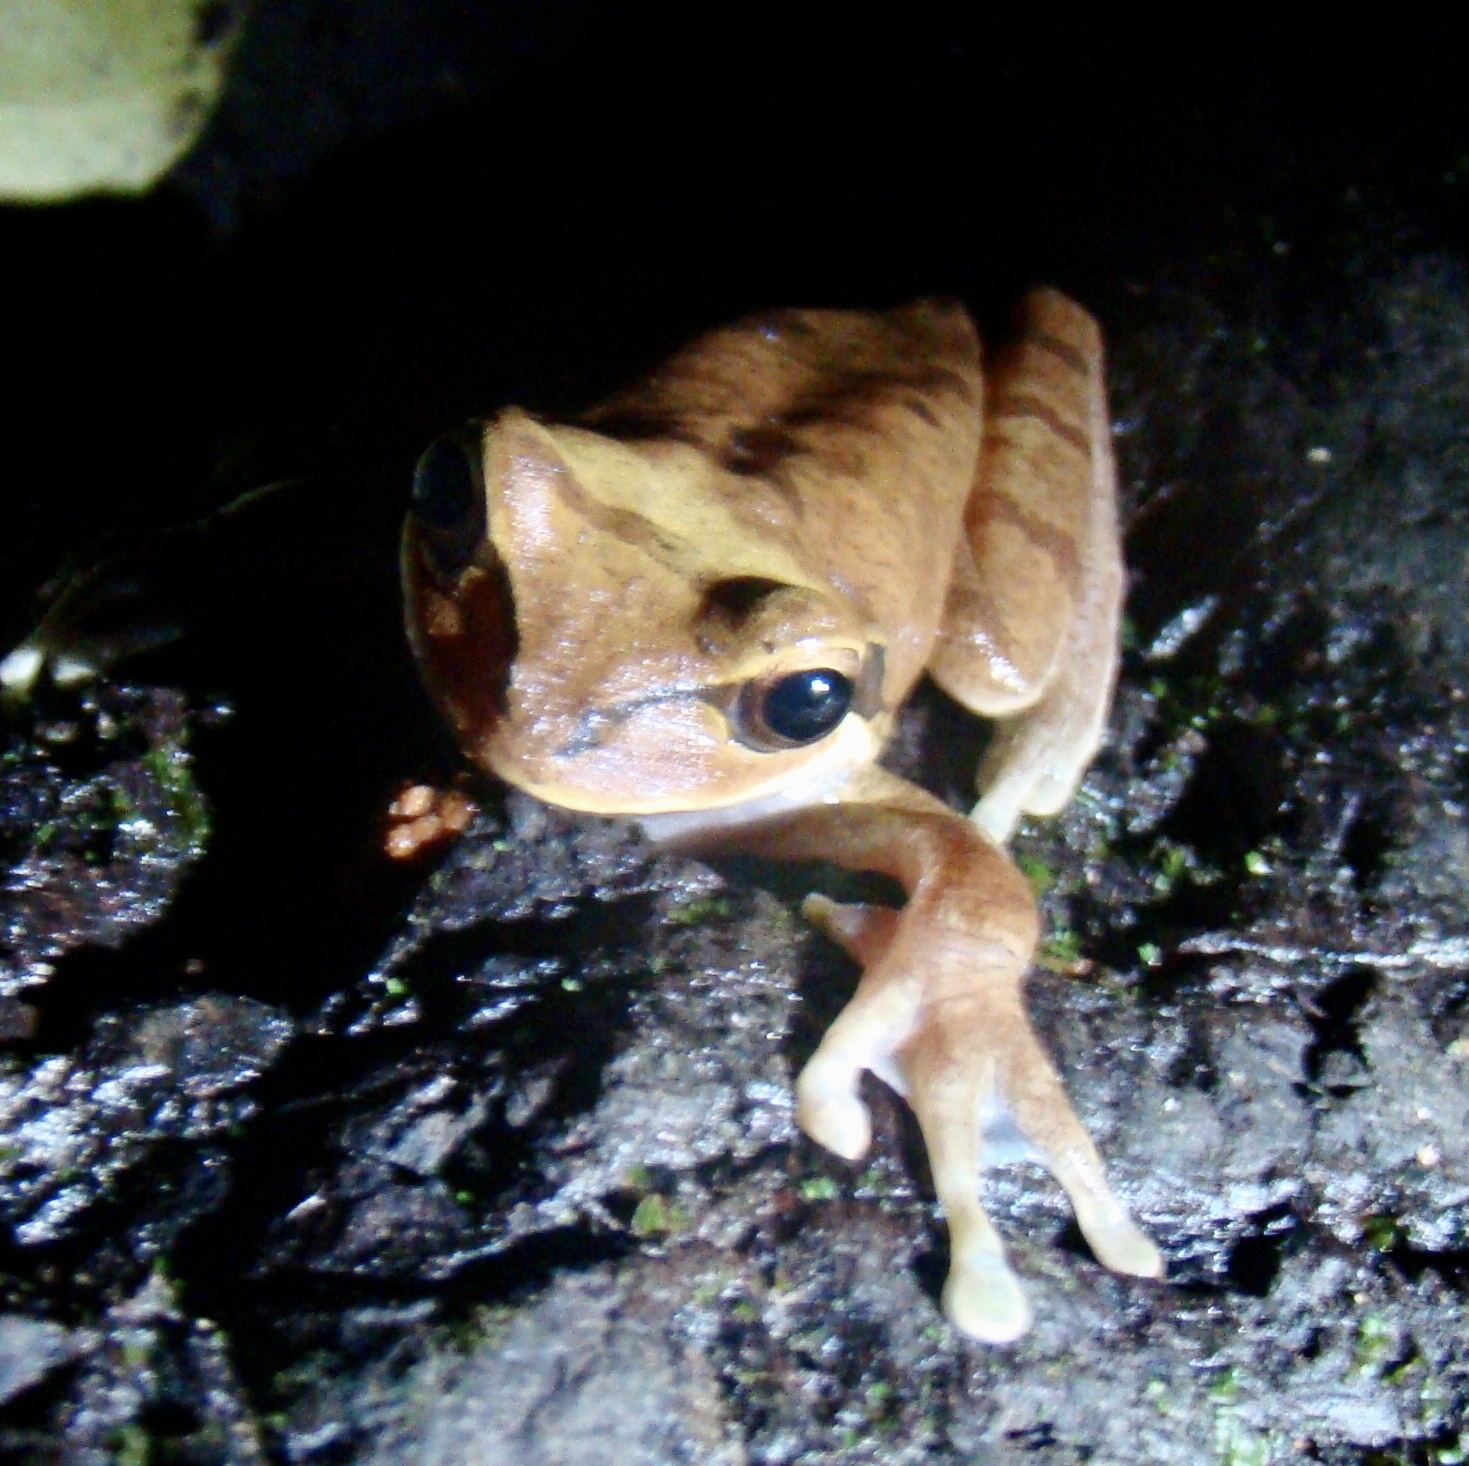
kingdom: Animalia
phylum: Chordata
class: Amphibia
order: Anura
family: Hylidae
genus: Smilisca
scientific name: Smilisca phaeota
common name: Central american smilisca
